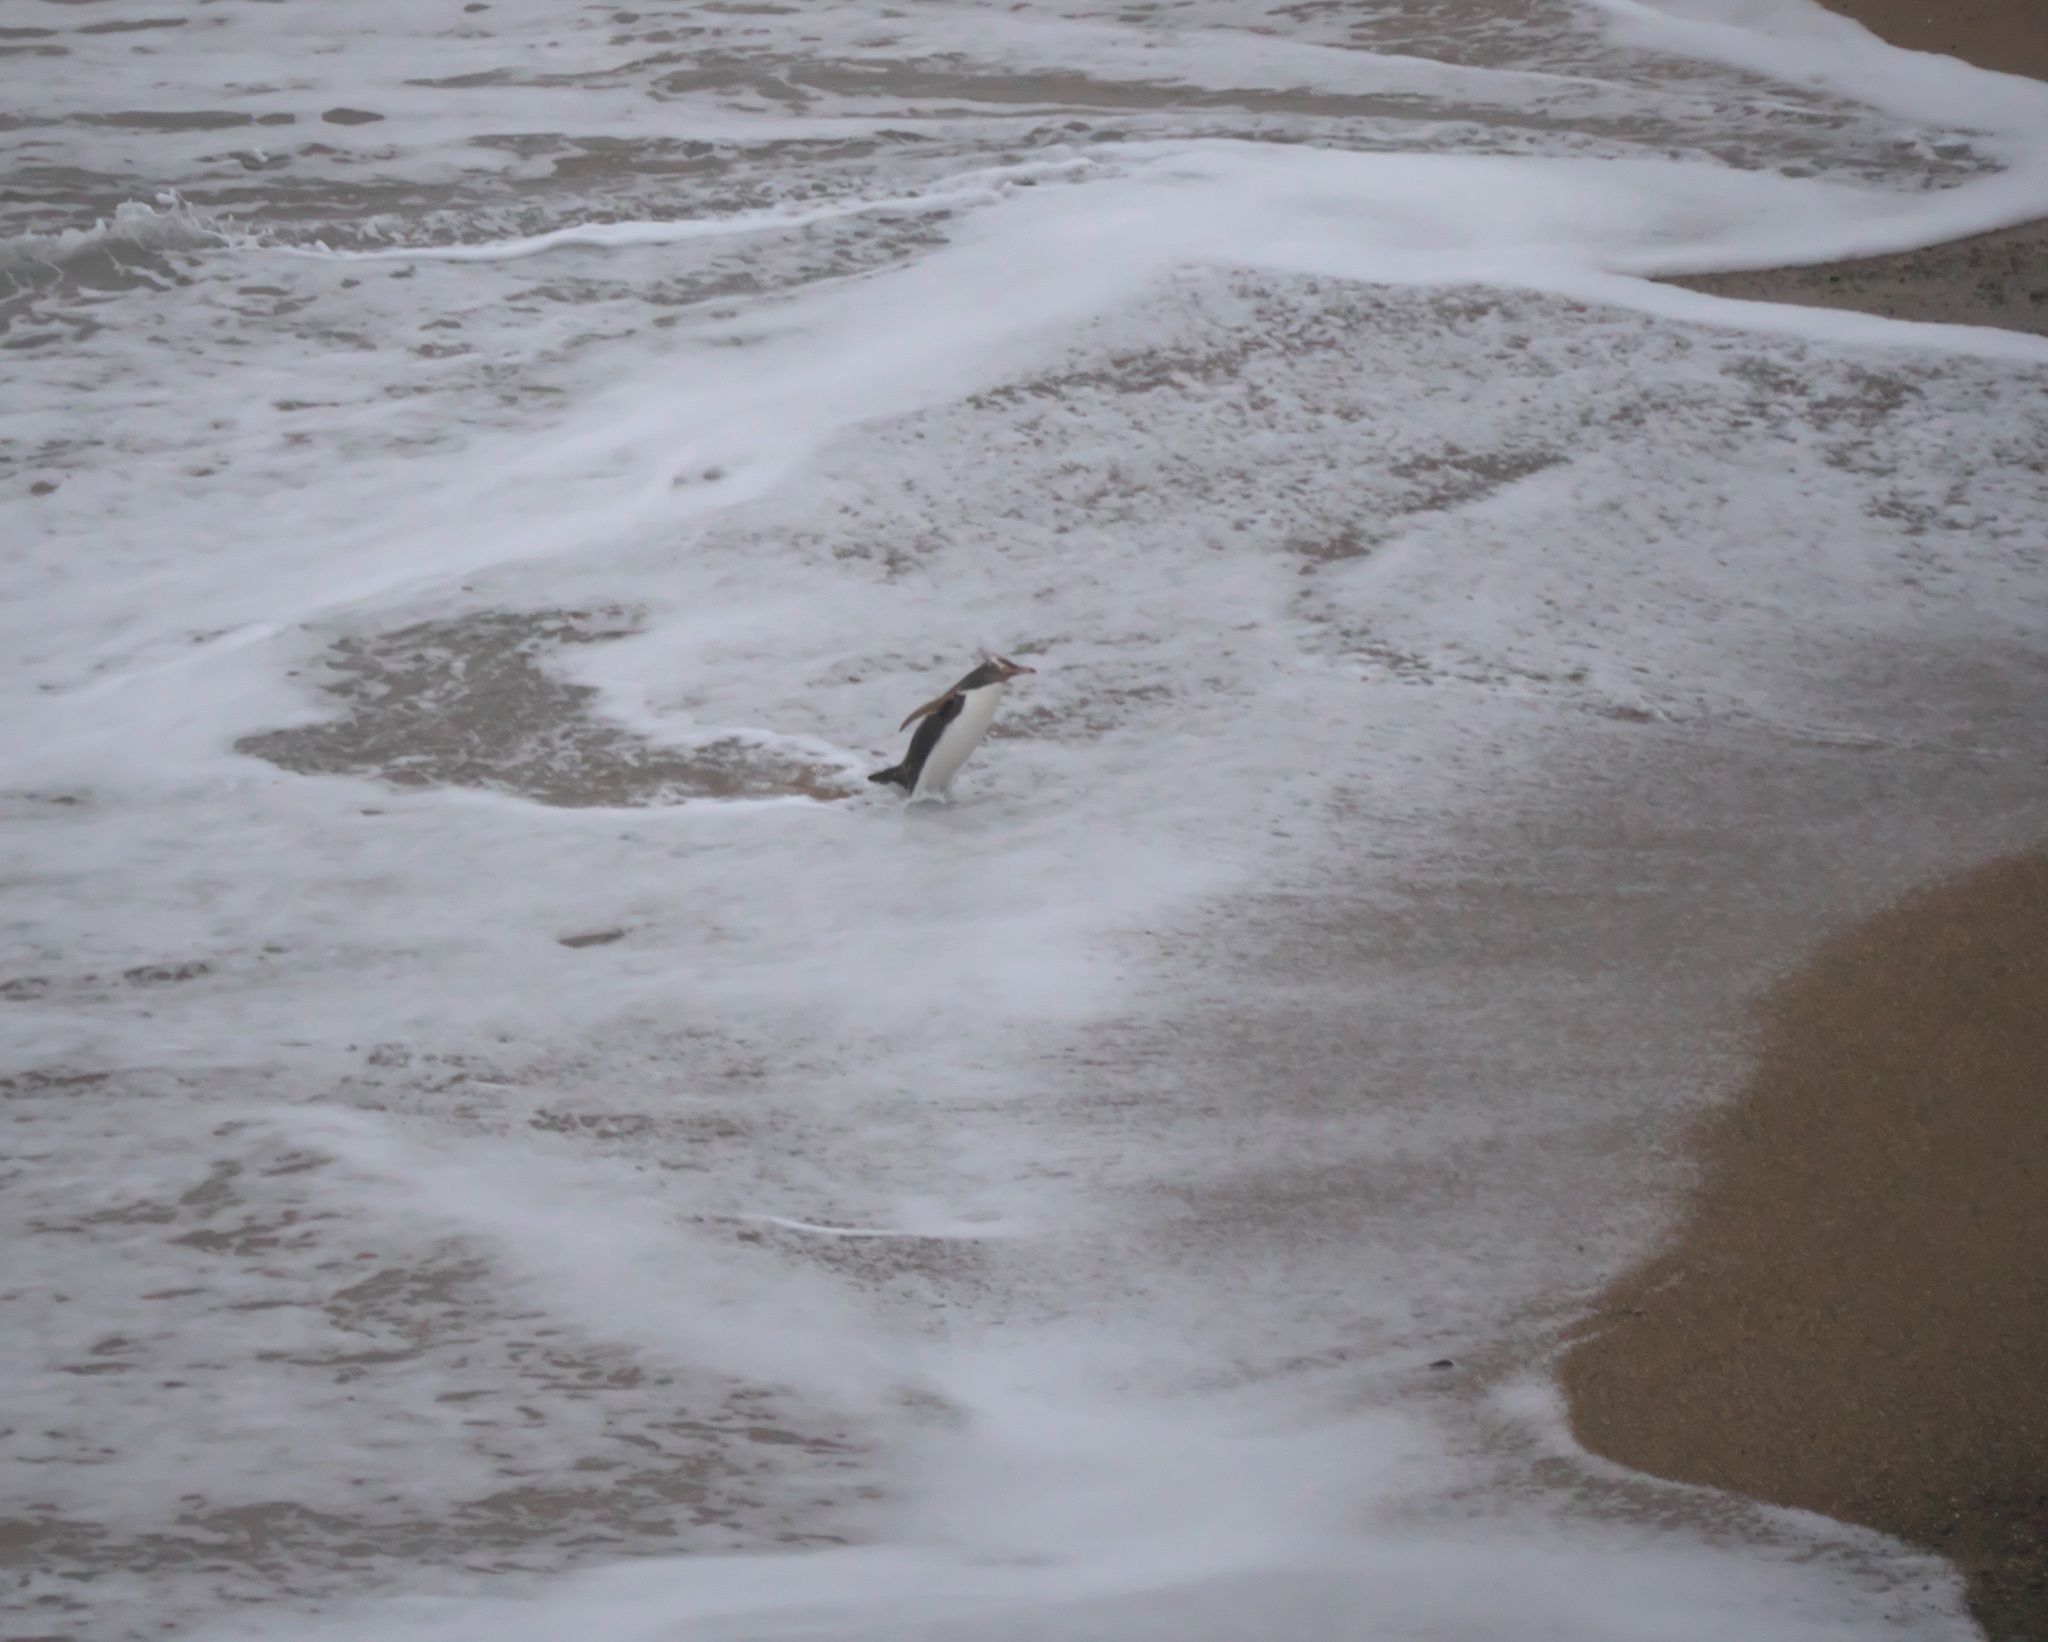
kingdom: Animalia
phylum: Chordata
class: Aves
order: Sphenisciformes
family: Spheniscidae
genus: Megadyptes
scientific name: Megadyptes antipodes
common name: Yellow-eyed penguin
